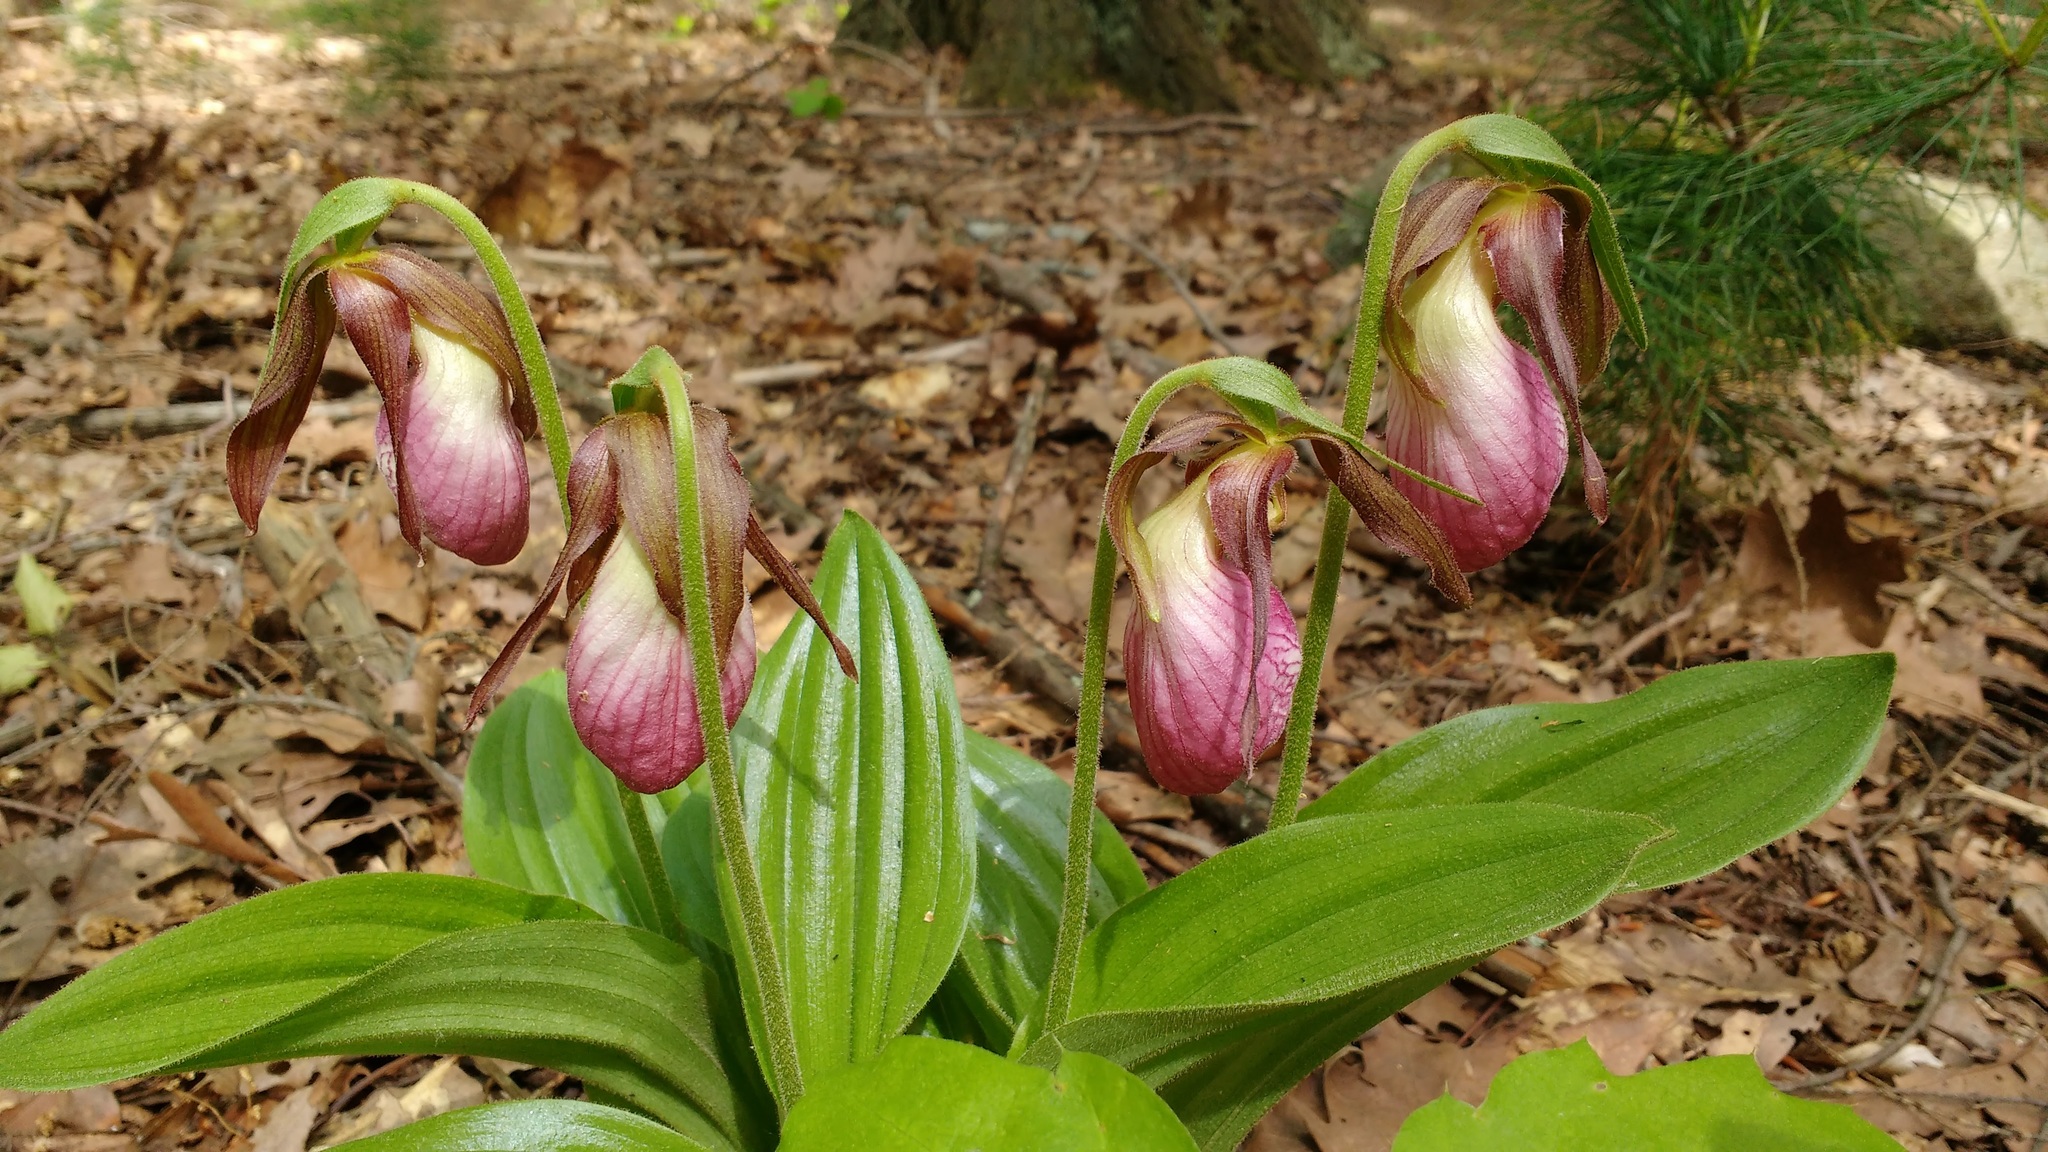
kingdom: Plantae
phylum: Tracheophyta
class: Liliopsida
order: Asparagales
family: Orchidaceae
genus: Cypripedium
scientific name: Cypripedium acaule
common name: Pink lady's-slipper
